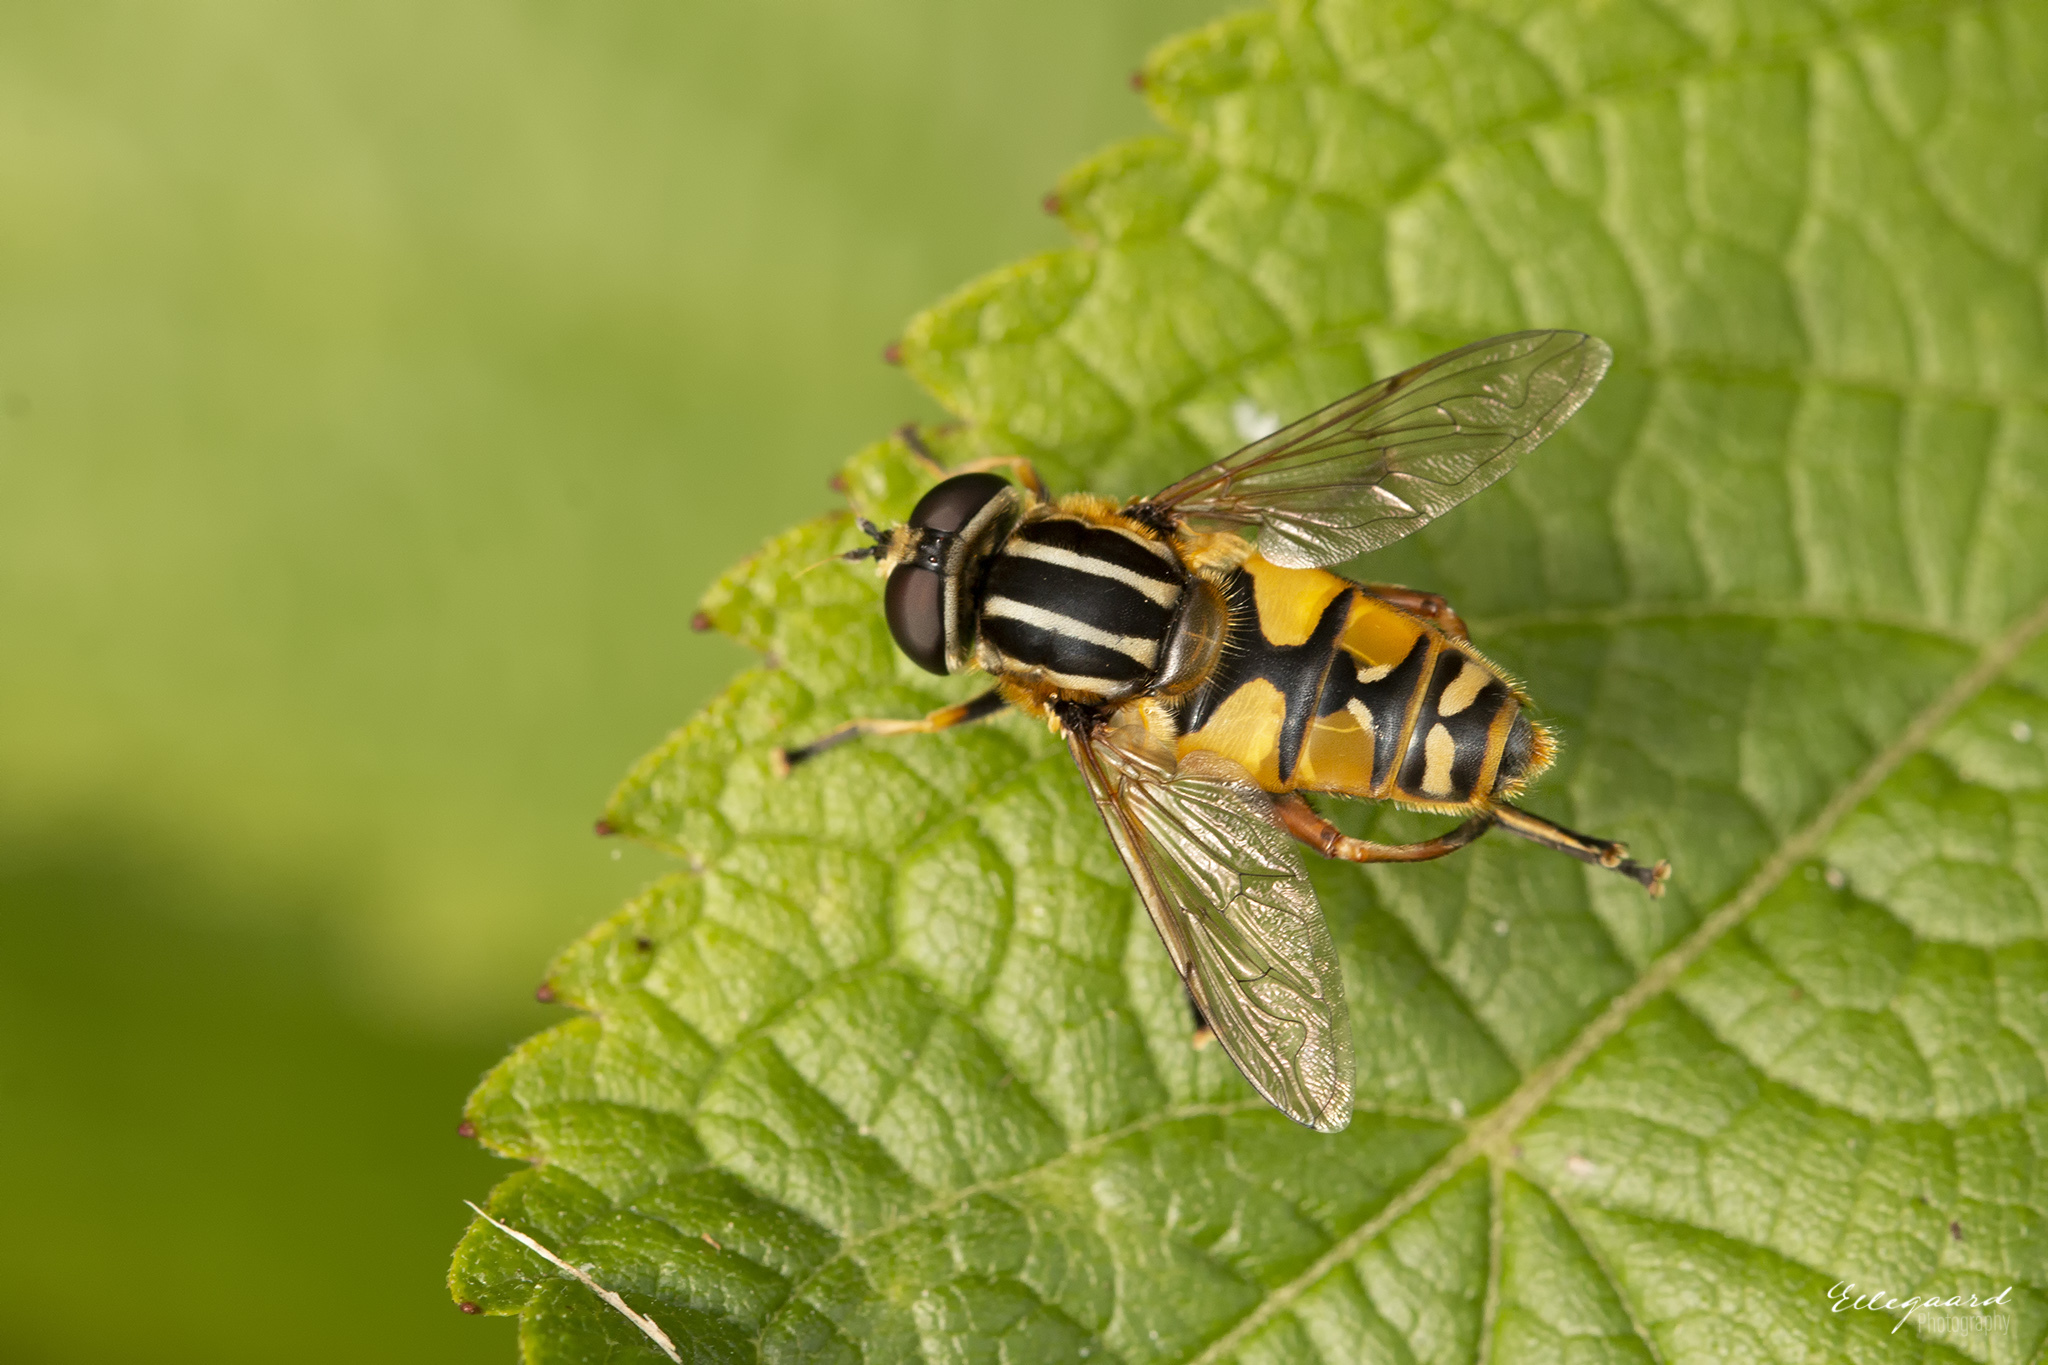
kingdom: Animalia
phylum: Arthropoda
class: Insecta
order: Diptera
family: Syrphidae
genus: Helophilus
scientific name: Helophilus pendulus
